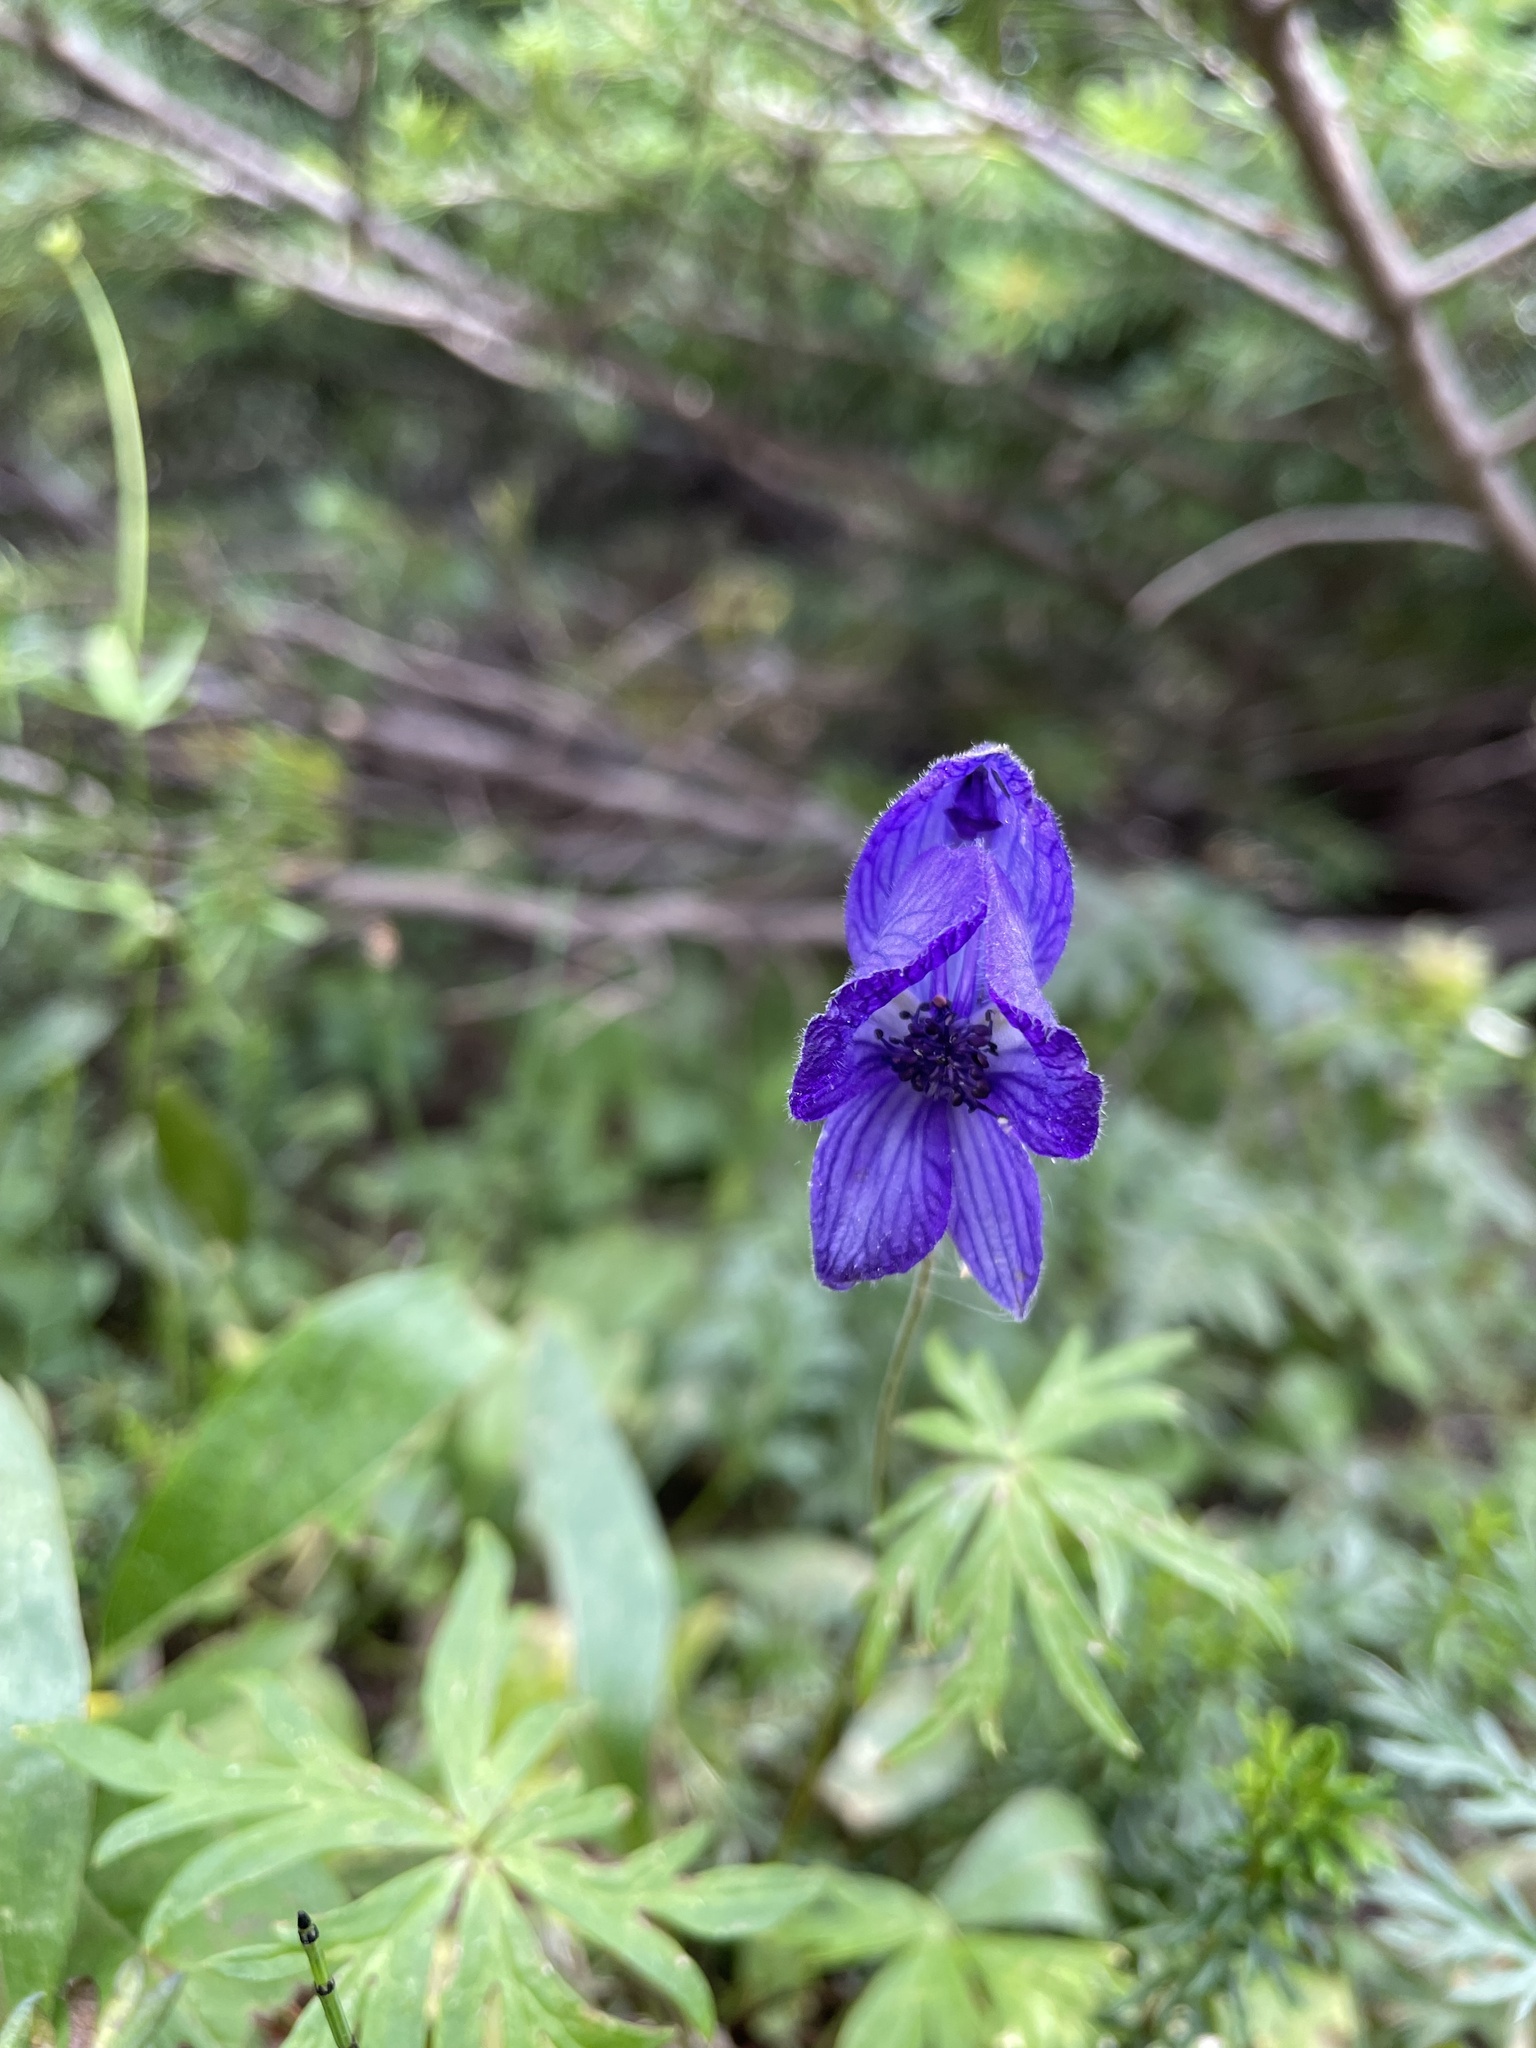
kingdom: Plantae
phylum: Tracheophyta
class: Magnoliopsida
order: Ranunculales
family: Ranunculaceae
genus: Aconitum
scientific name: Aconitum delphiniifolium
